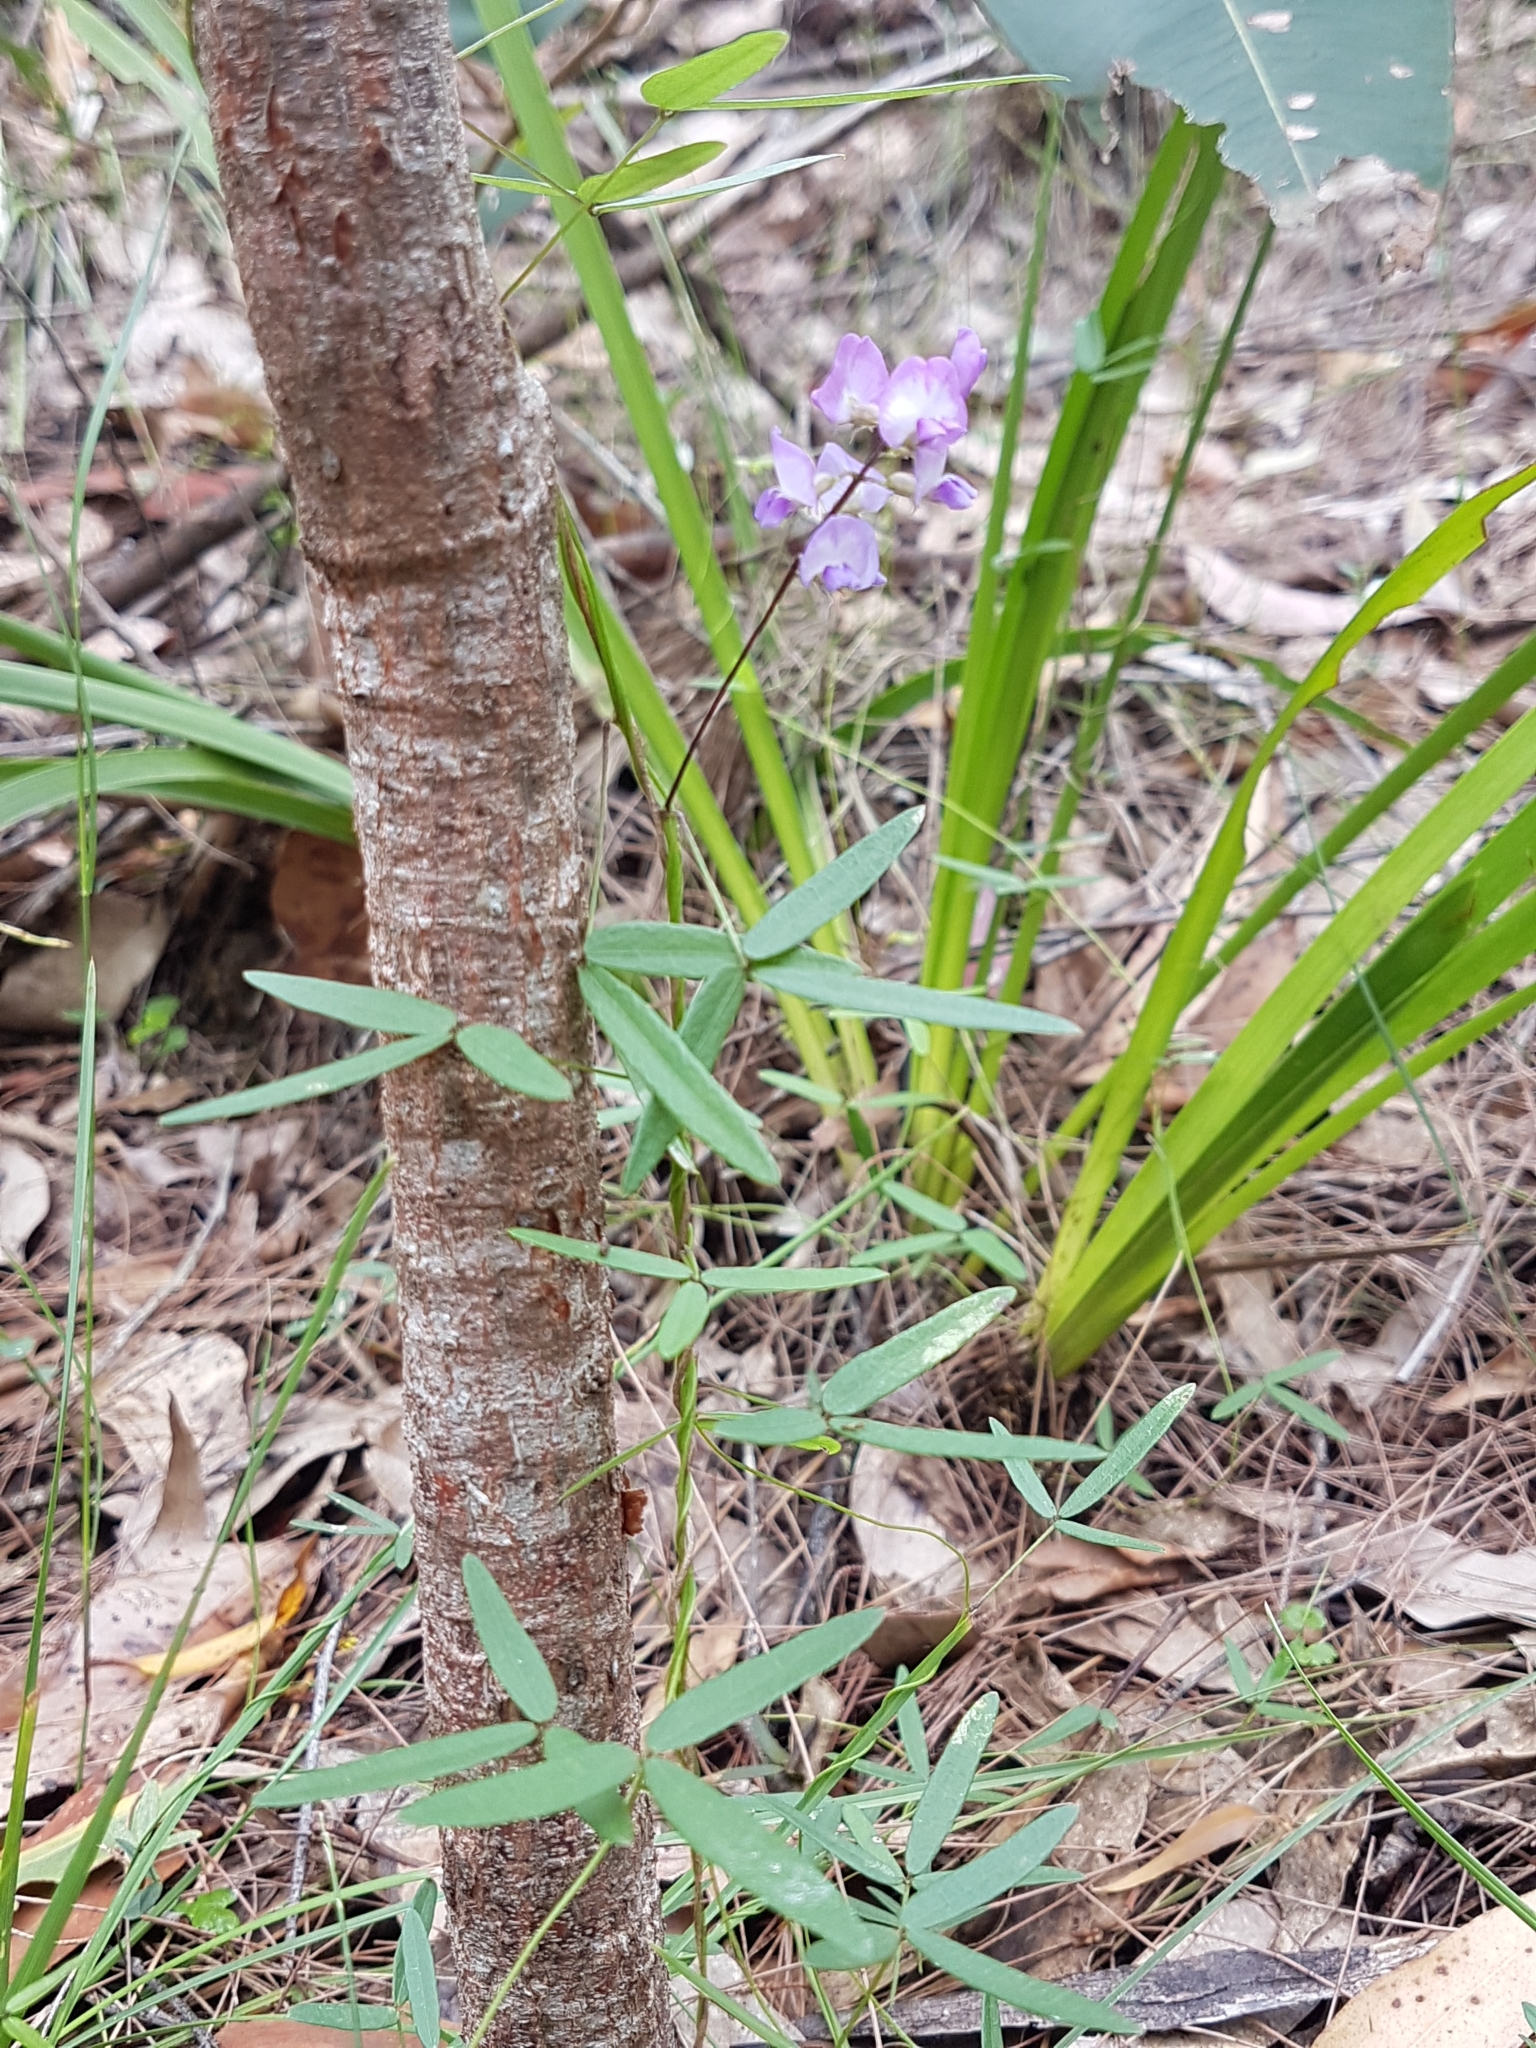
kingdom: Plantae
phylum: Tracheophyta
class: Magnoliopsida
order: Fabales
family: Fabaceae
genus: Glycine
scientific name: Glycine clandestina
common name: Twining glycine
